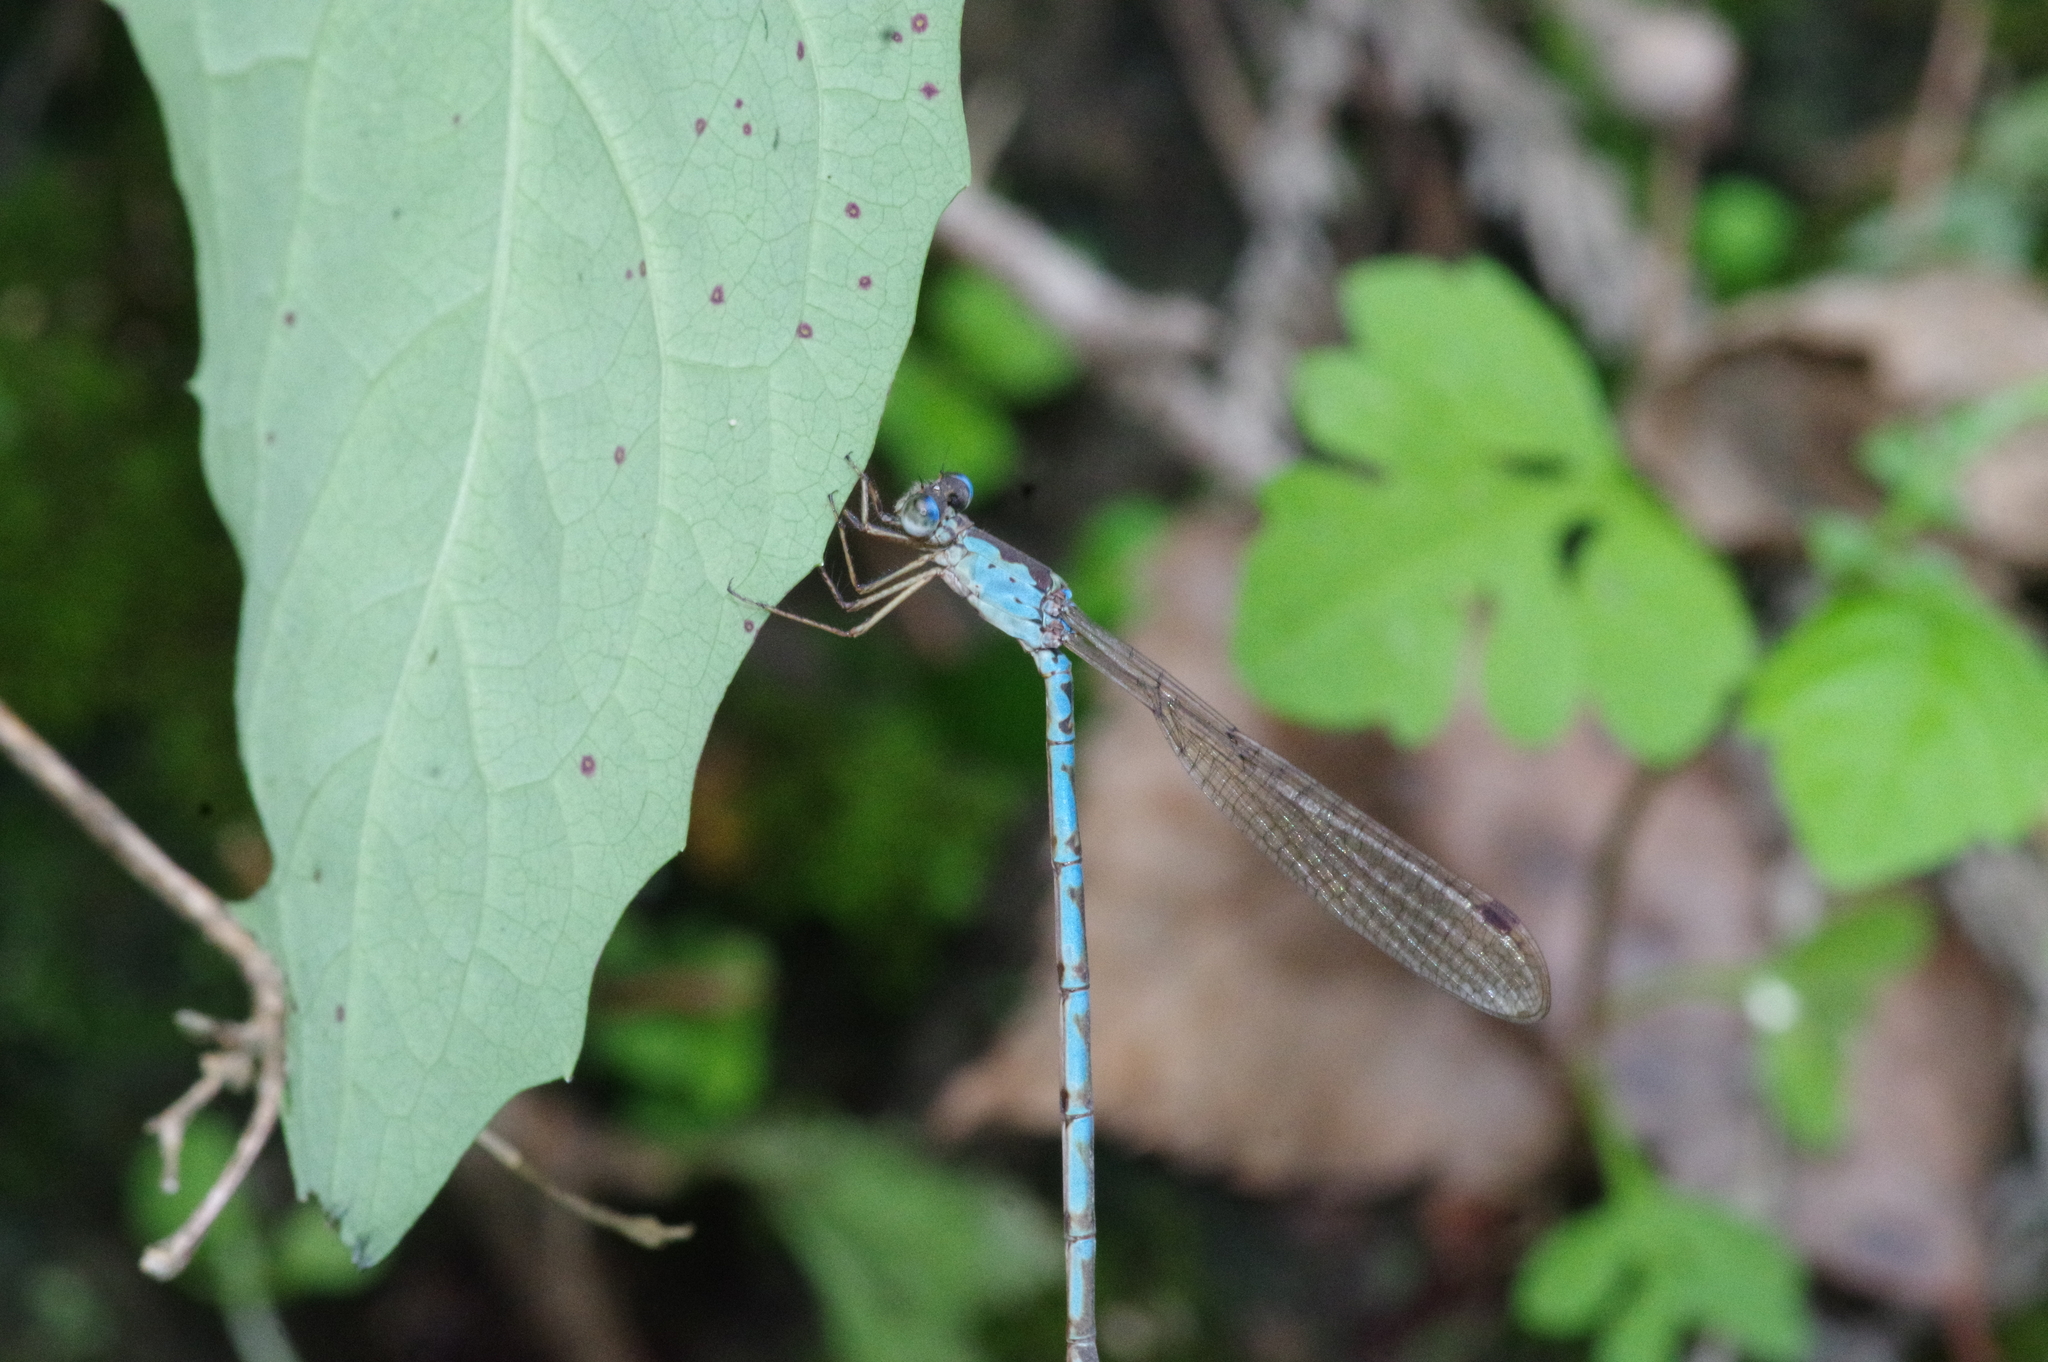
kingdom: Animalia
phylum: Arthropoda
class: Insecta
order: Odonata
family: Lestidae
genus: Indolestes
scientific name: Indolestes peregrinus
